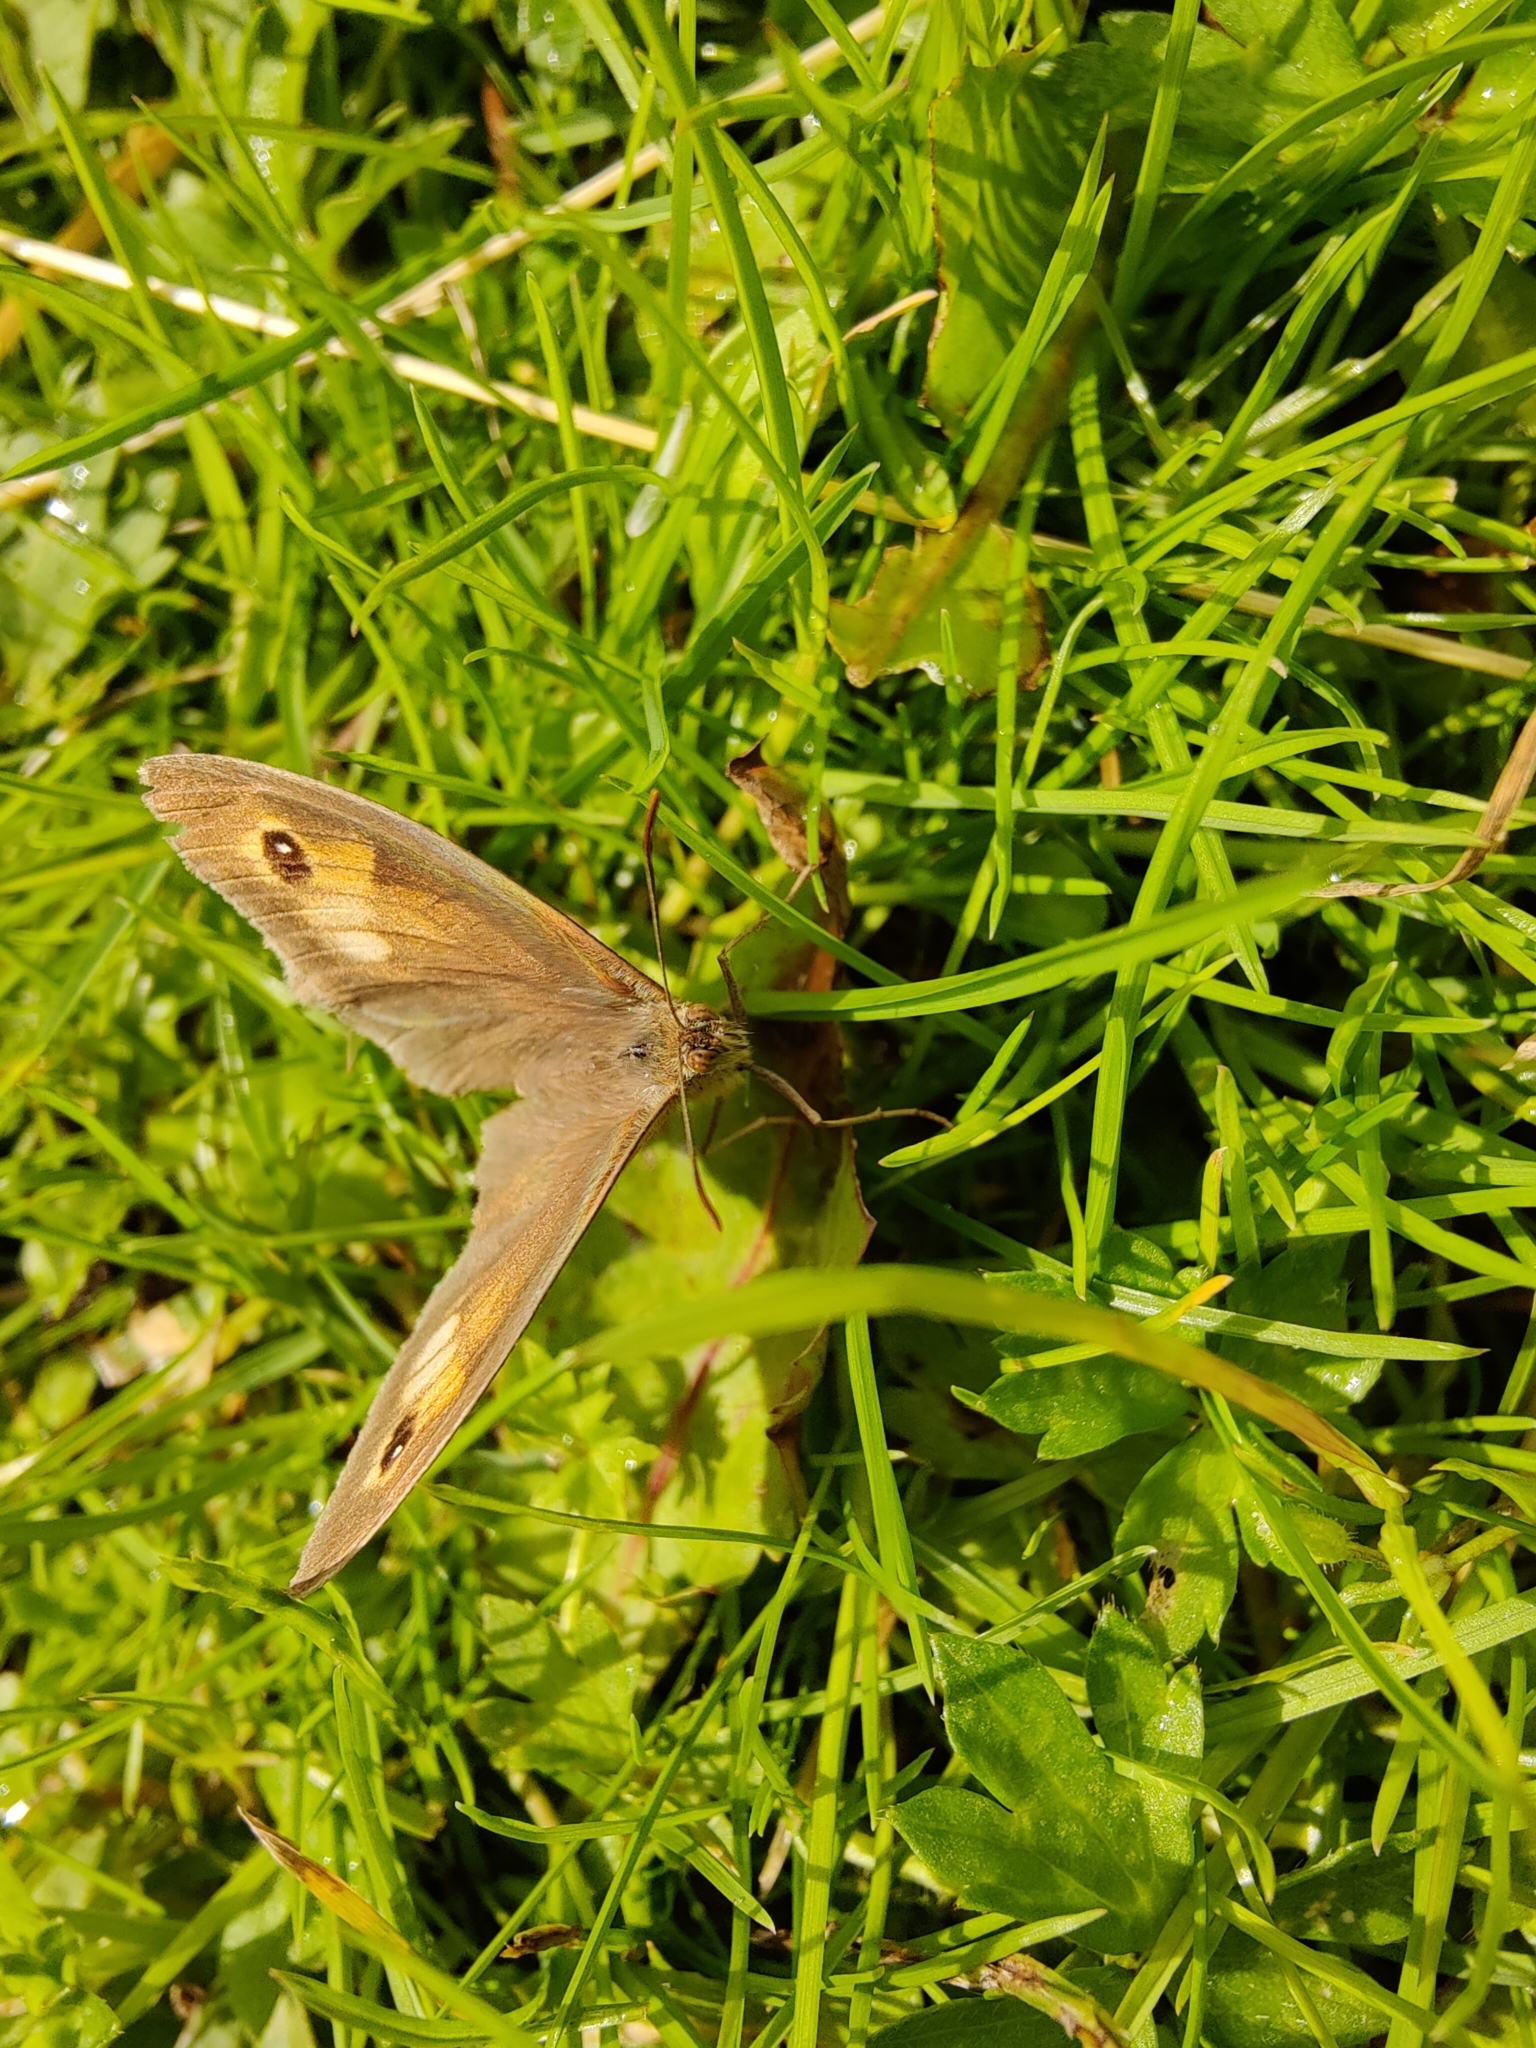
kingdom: Animalia
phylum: Arthropoda
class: Insecta
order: Lepidoptera
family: Nymphalidae
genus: Maniola
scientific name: Maniola jurtina
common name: Meadow brown
